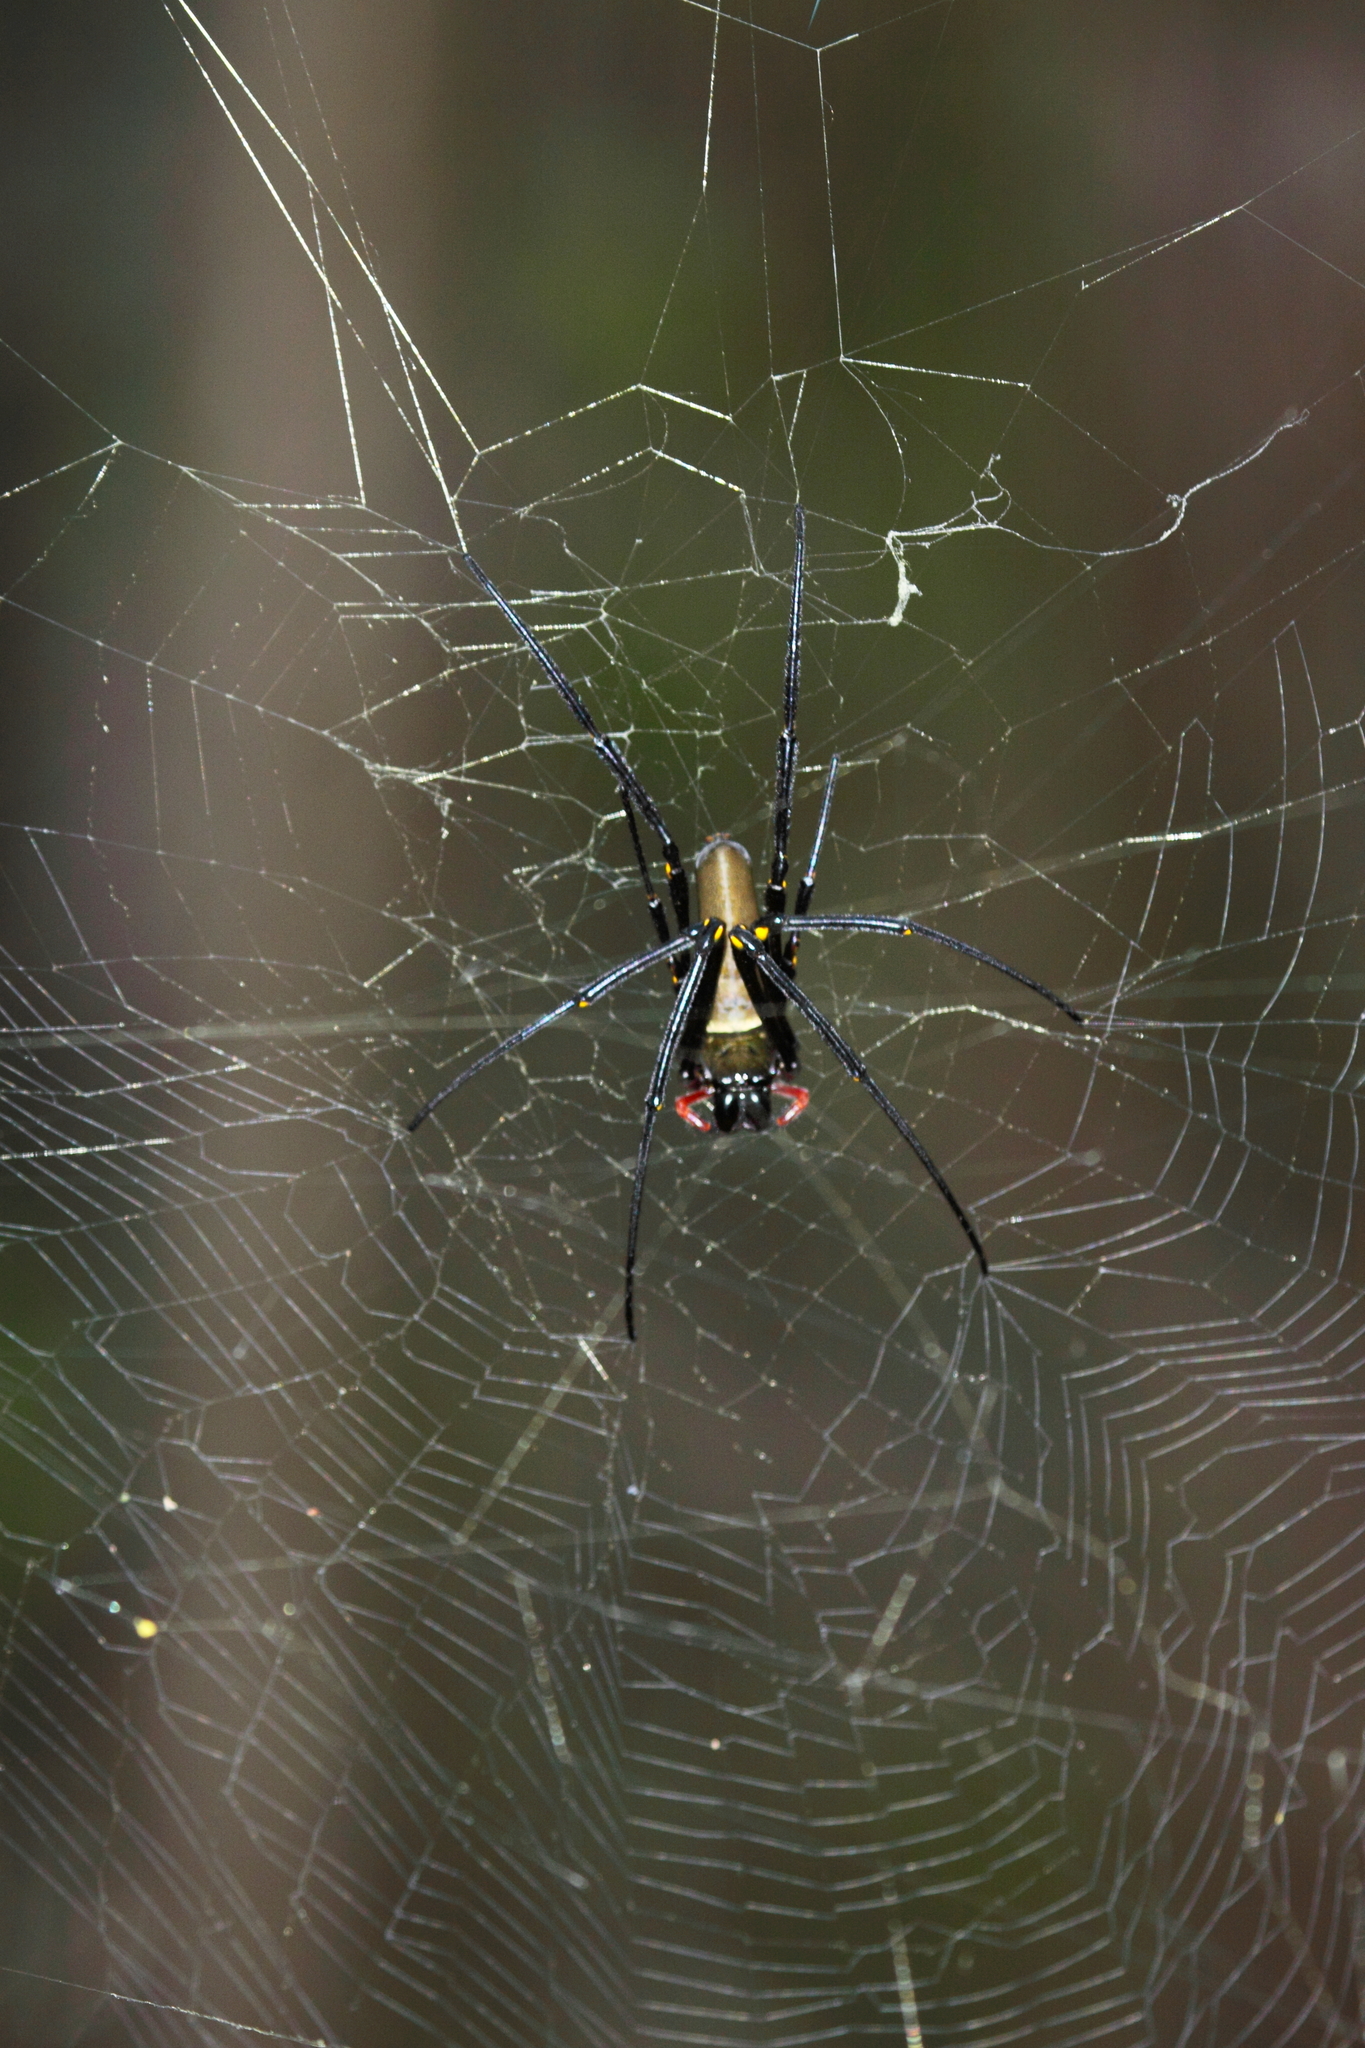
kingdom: Animalia
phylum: Arthropoda
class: Arachnida
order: Araneae
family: Araneidae
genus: Nephila
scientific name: Nephila pilipes
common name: Giant golden orb weaver
